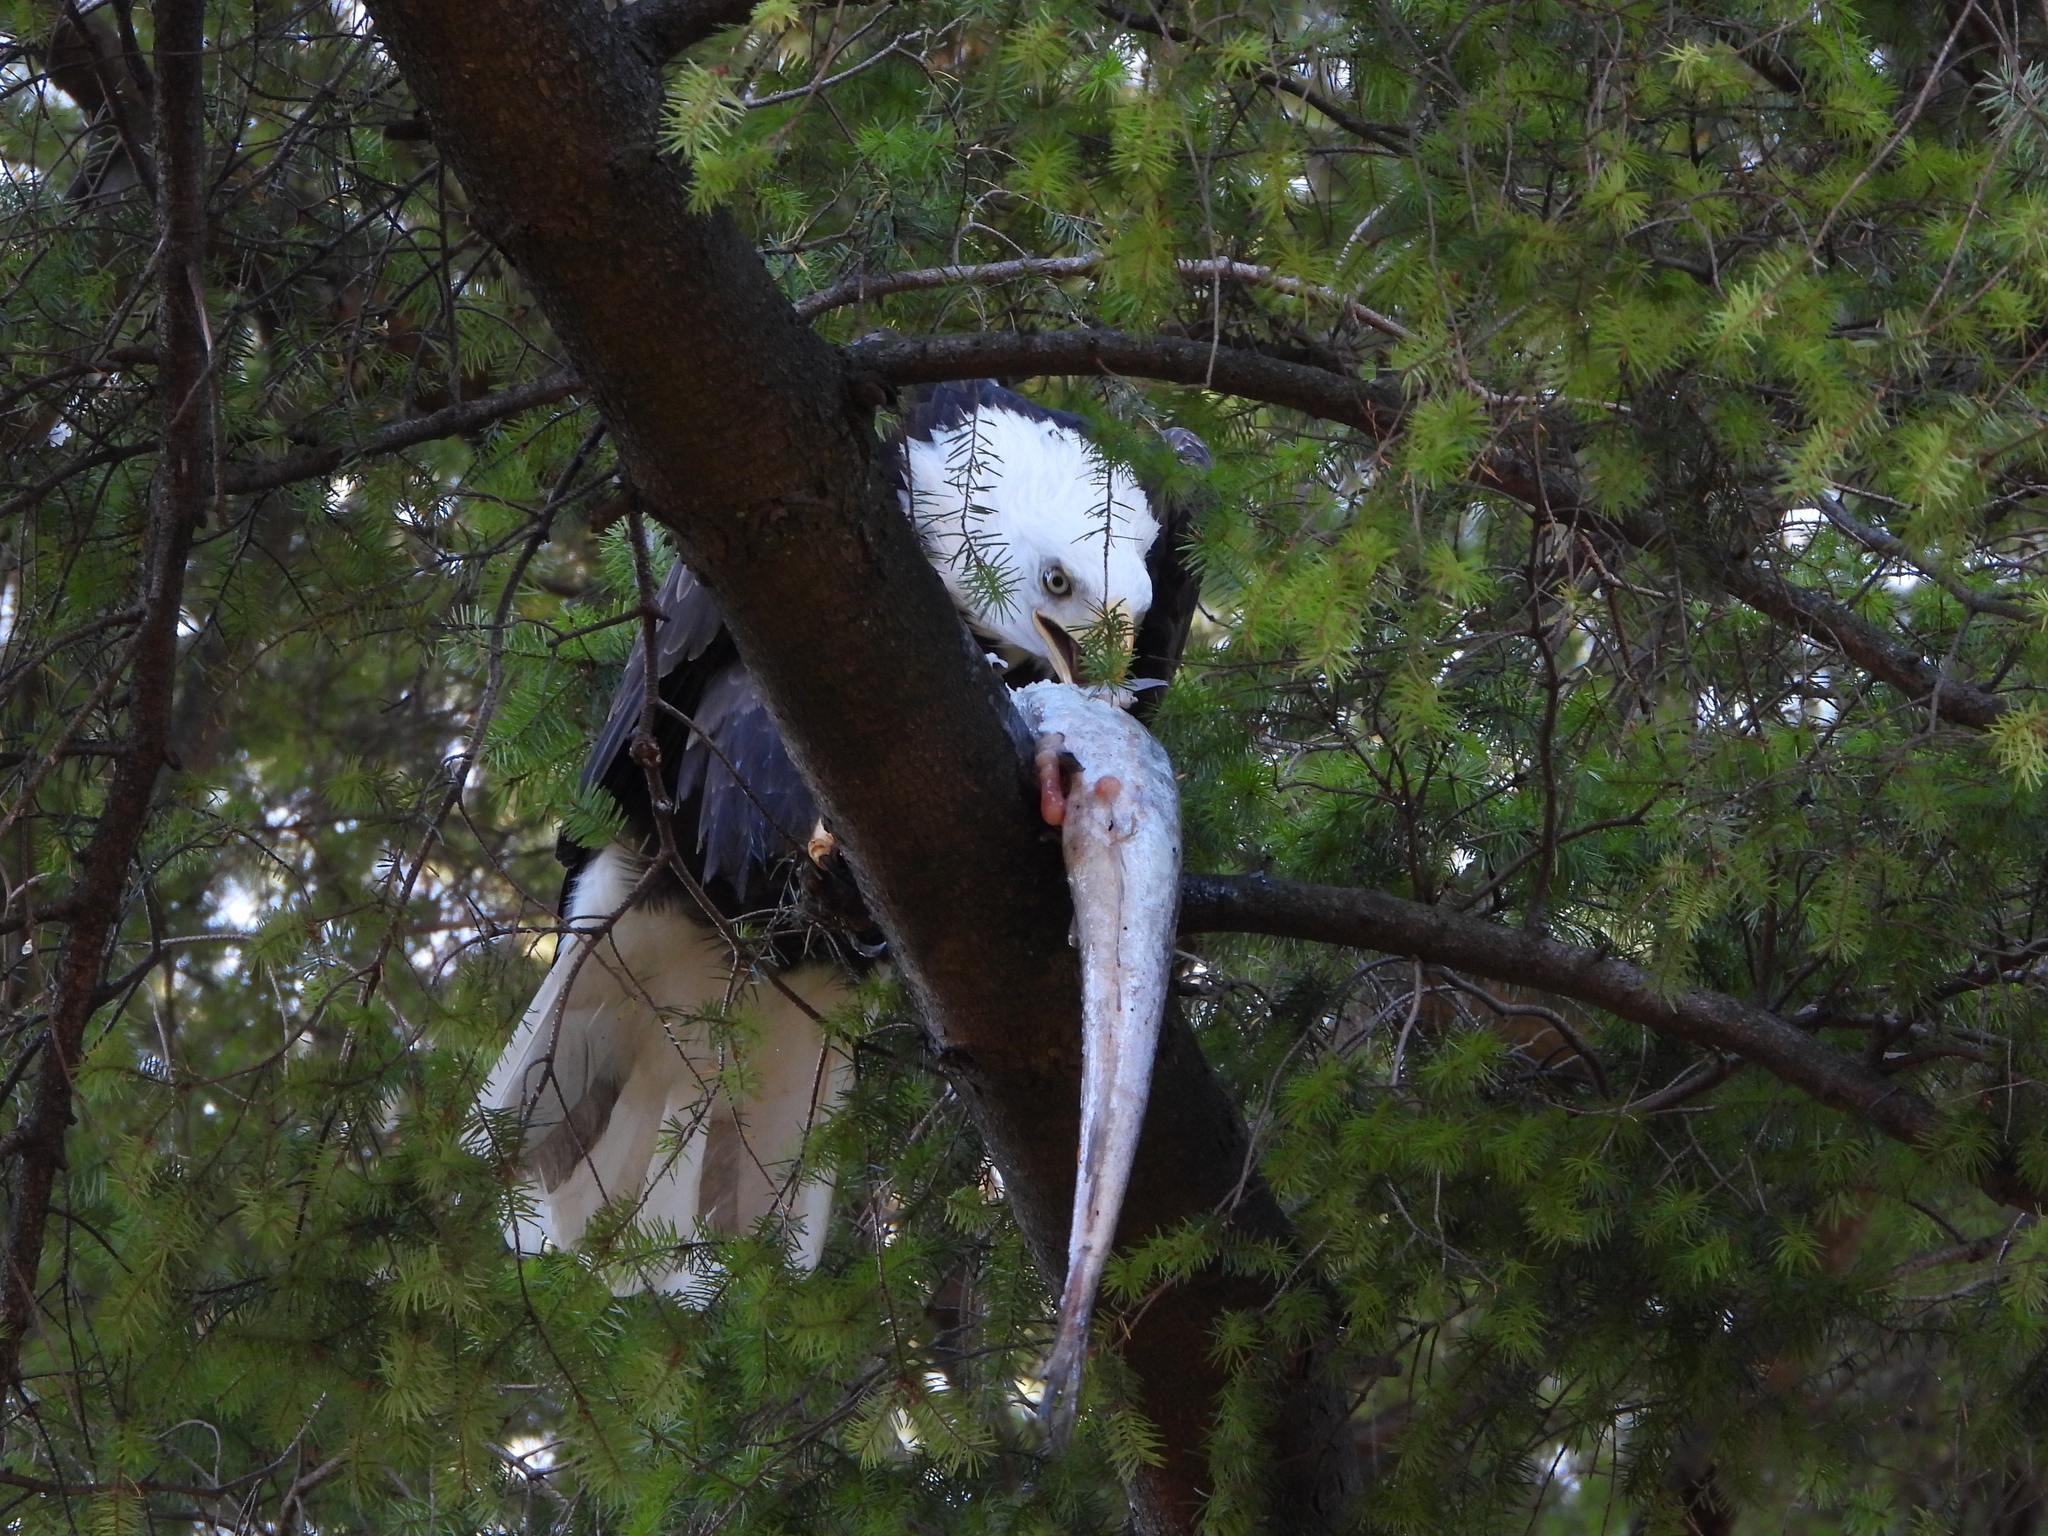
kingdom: Animalia
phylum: Chordata
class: Aves
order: Accipitriformes
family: Accipitridae
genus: Haliaeetus
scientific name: Haliaeetus leucocephalus
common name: Bald eagle
